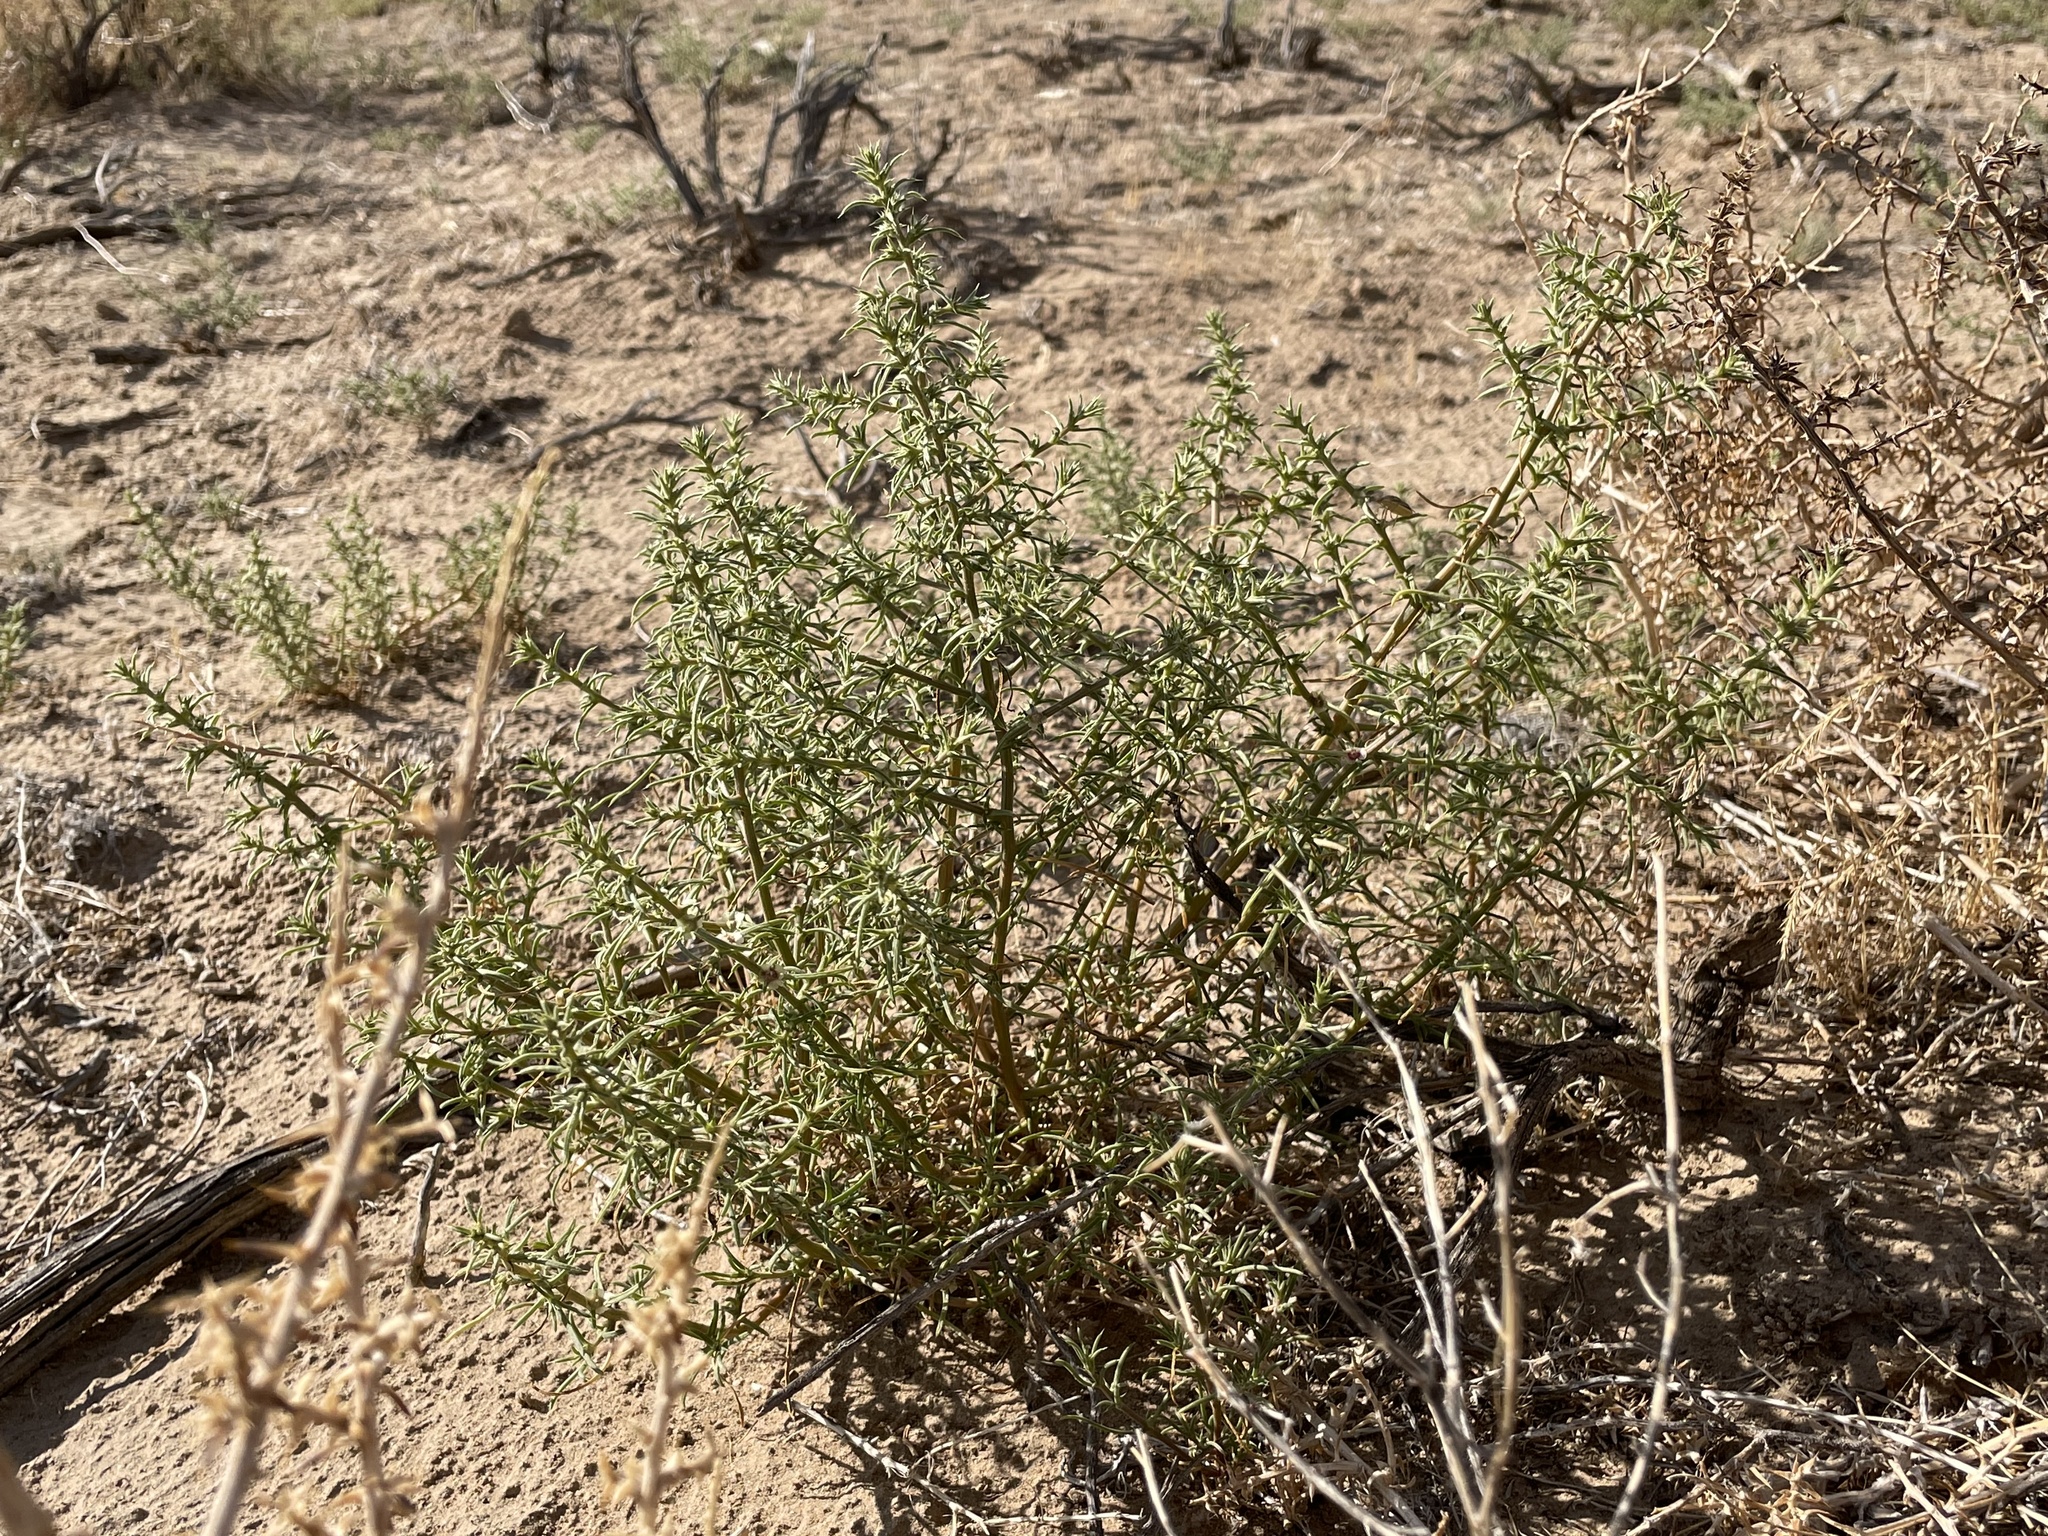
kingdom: Plantae
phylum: Tracheophyta
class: Magnoliopsida
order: Caryophyllales
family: Amaranthaceae
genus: Salsola
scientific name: Salsola tragus
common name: Prickly russian thistle
